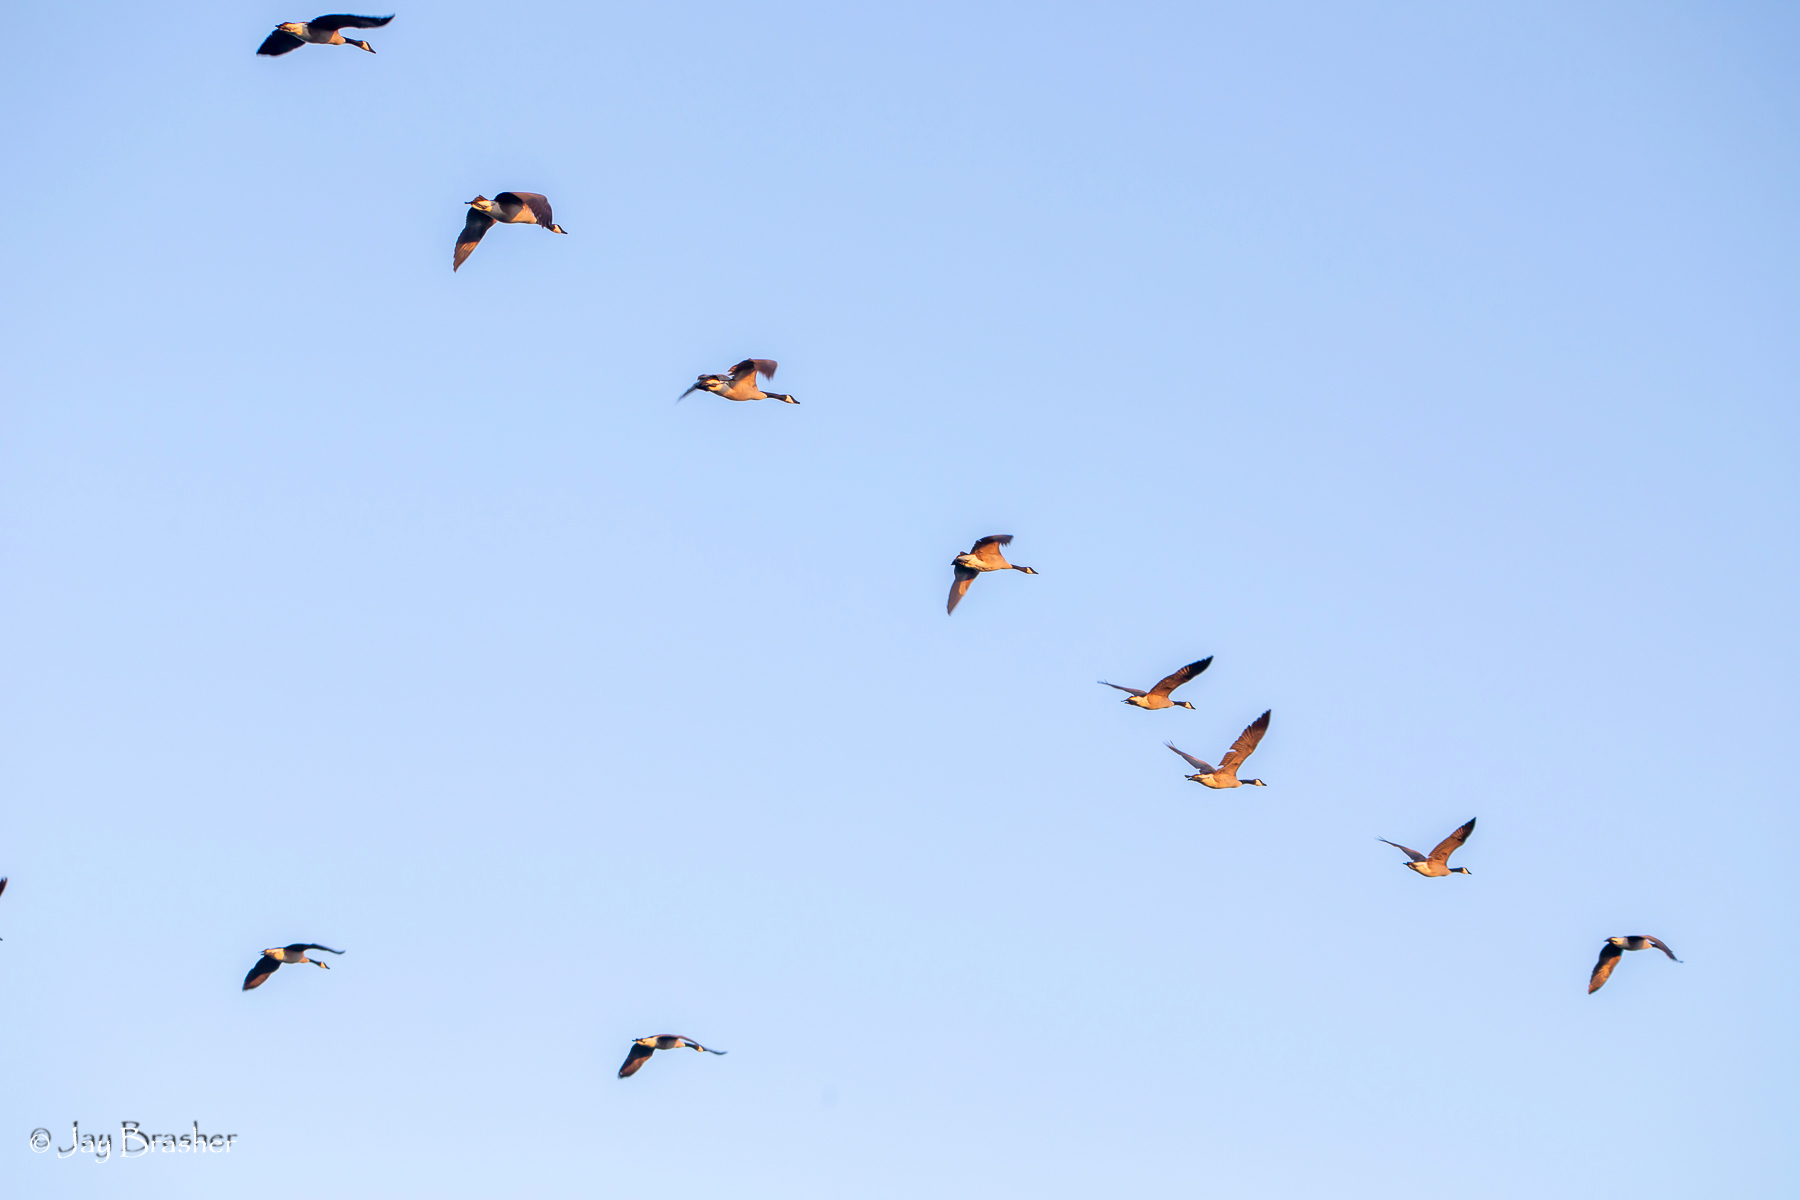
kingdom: Animalia
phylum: Chordata
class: Aves
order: Anseriformes
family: Anatidae
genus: Branta
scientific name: Branta canadensis
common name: Canada goose
